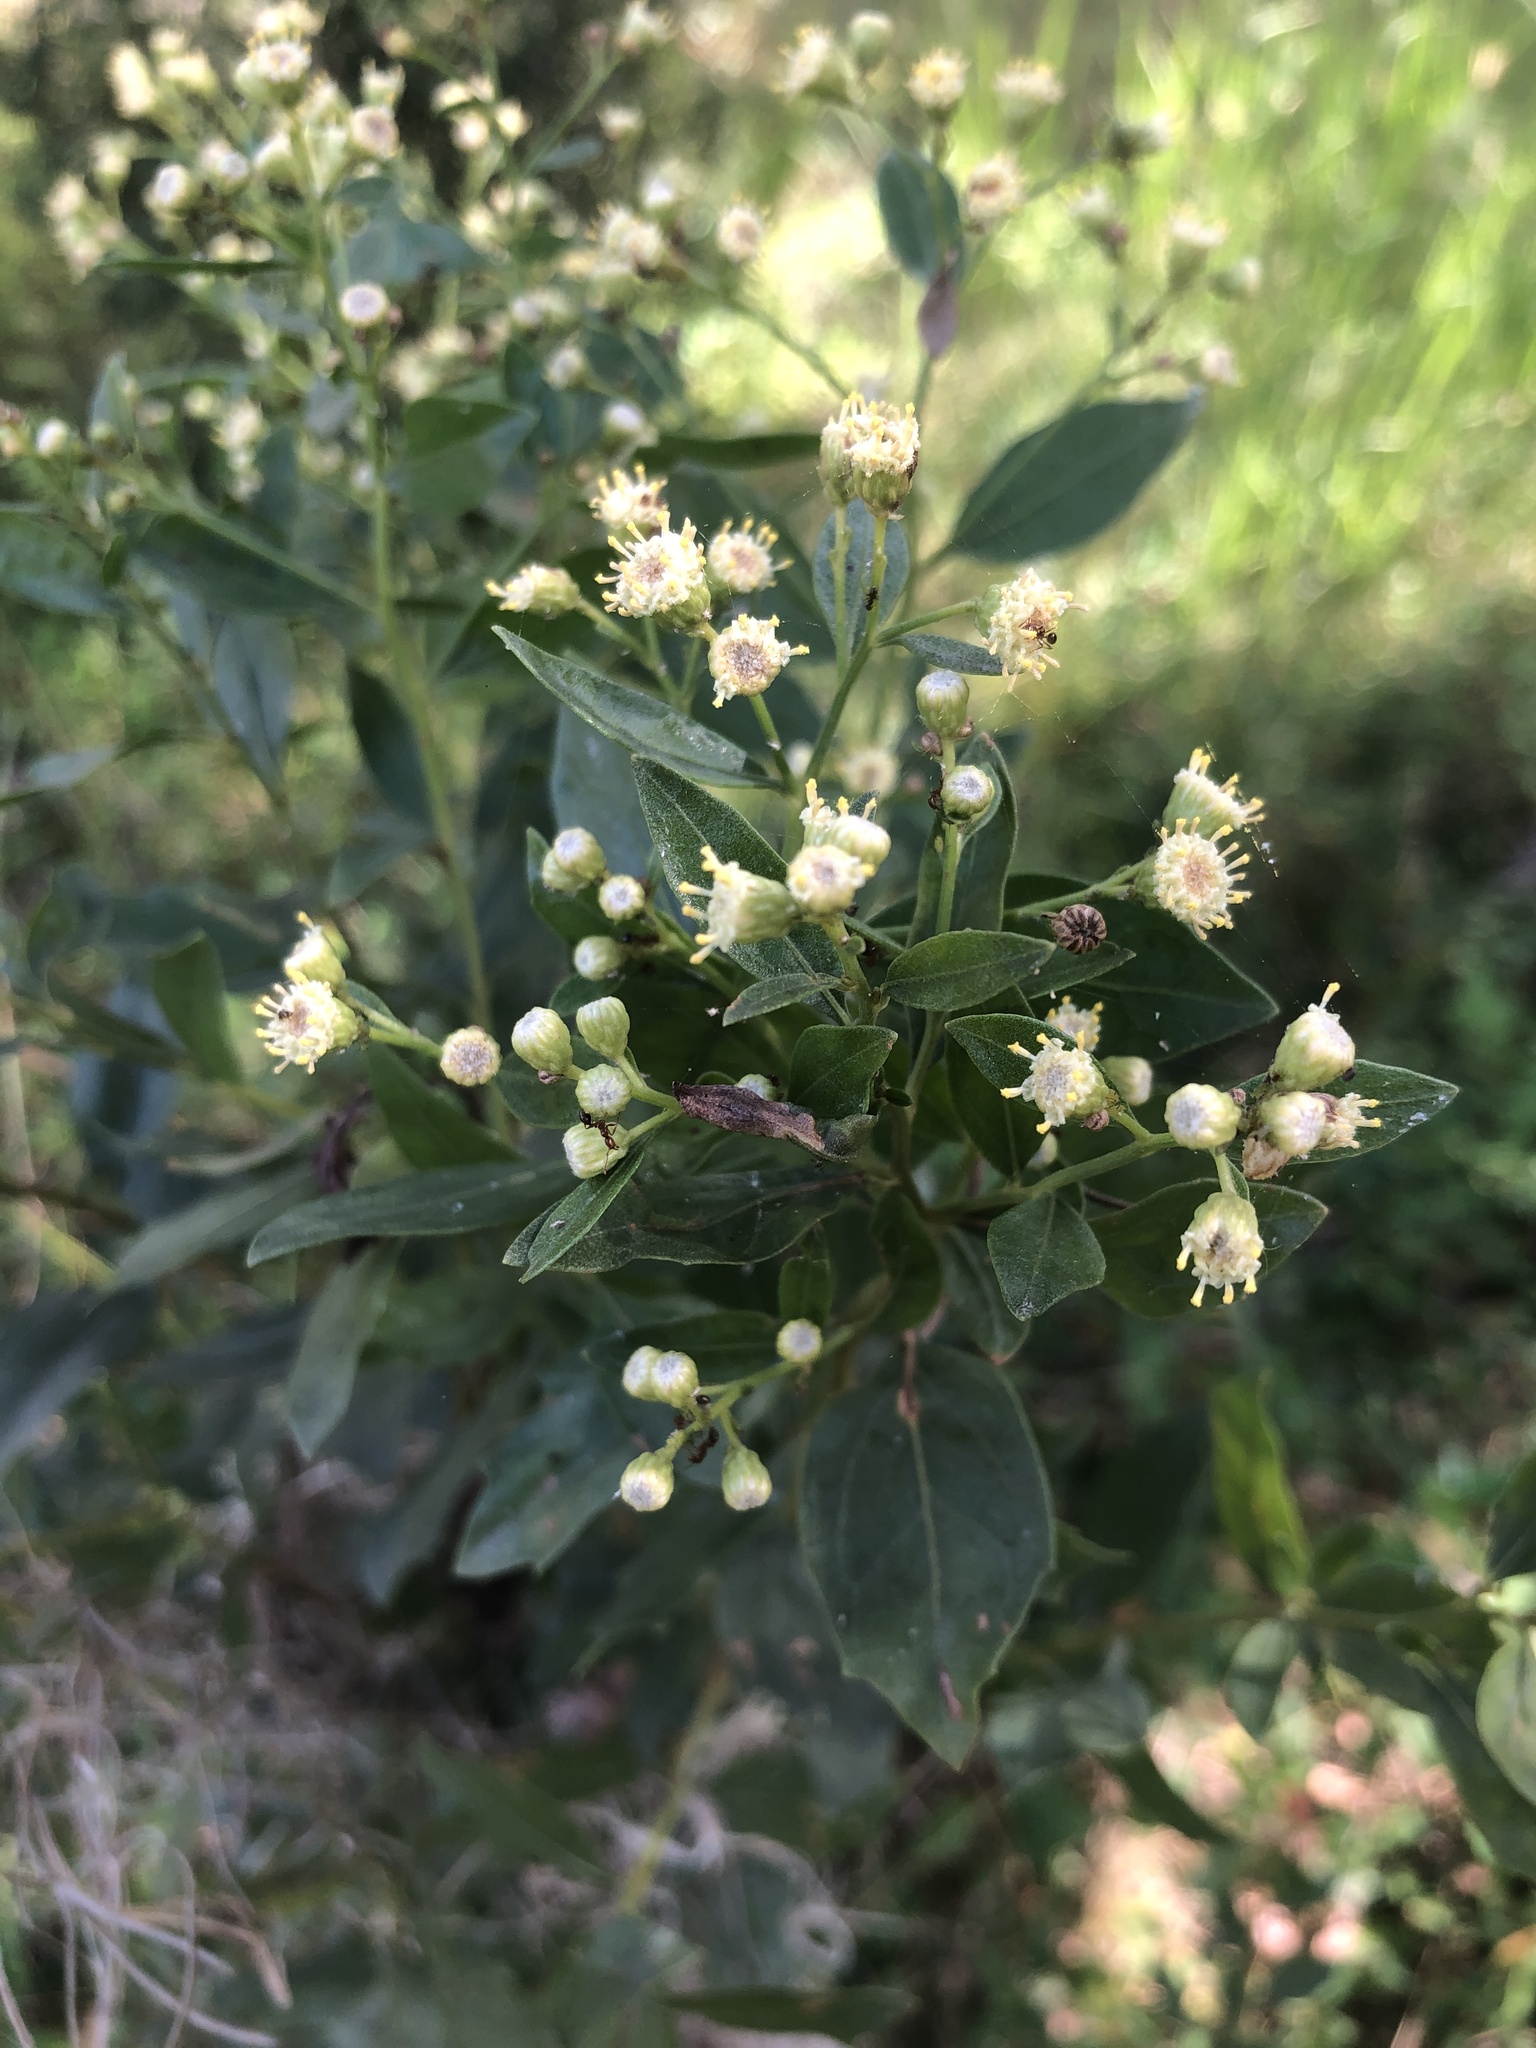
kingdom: Plantae
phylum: Tracheophyta
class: Magnoliopsida
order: Asterales
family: Asteraceae
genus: Baccharis
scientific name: Baccharis halimifolia
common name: Eastern baccharis
